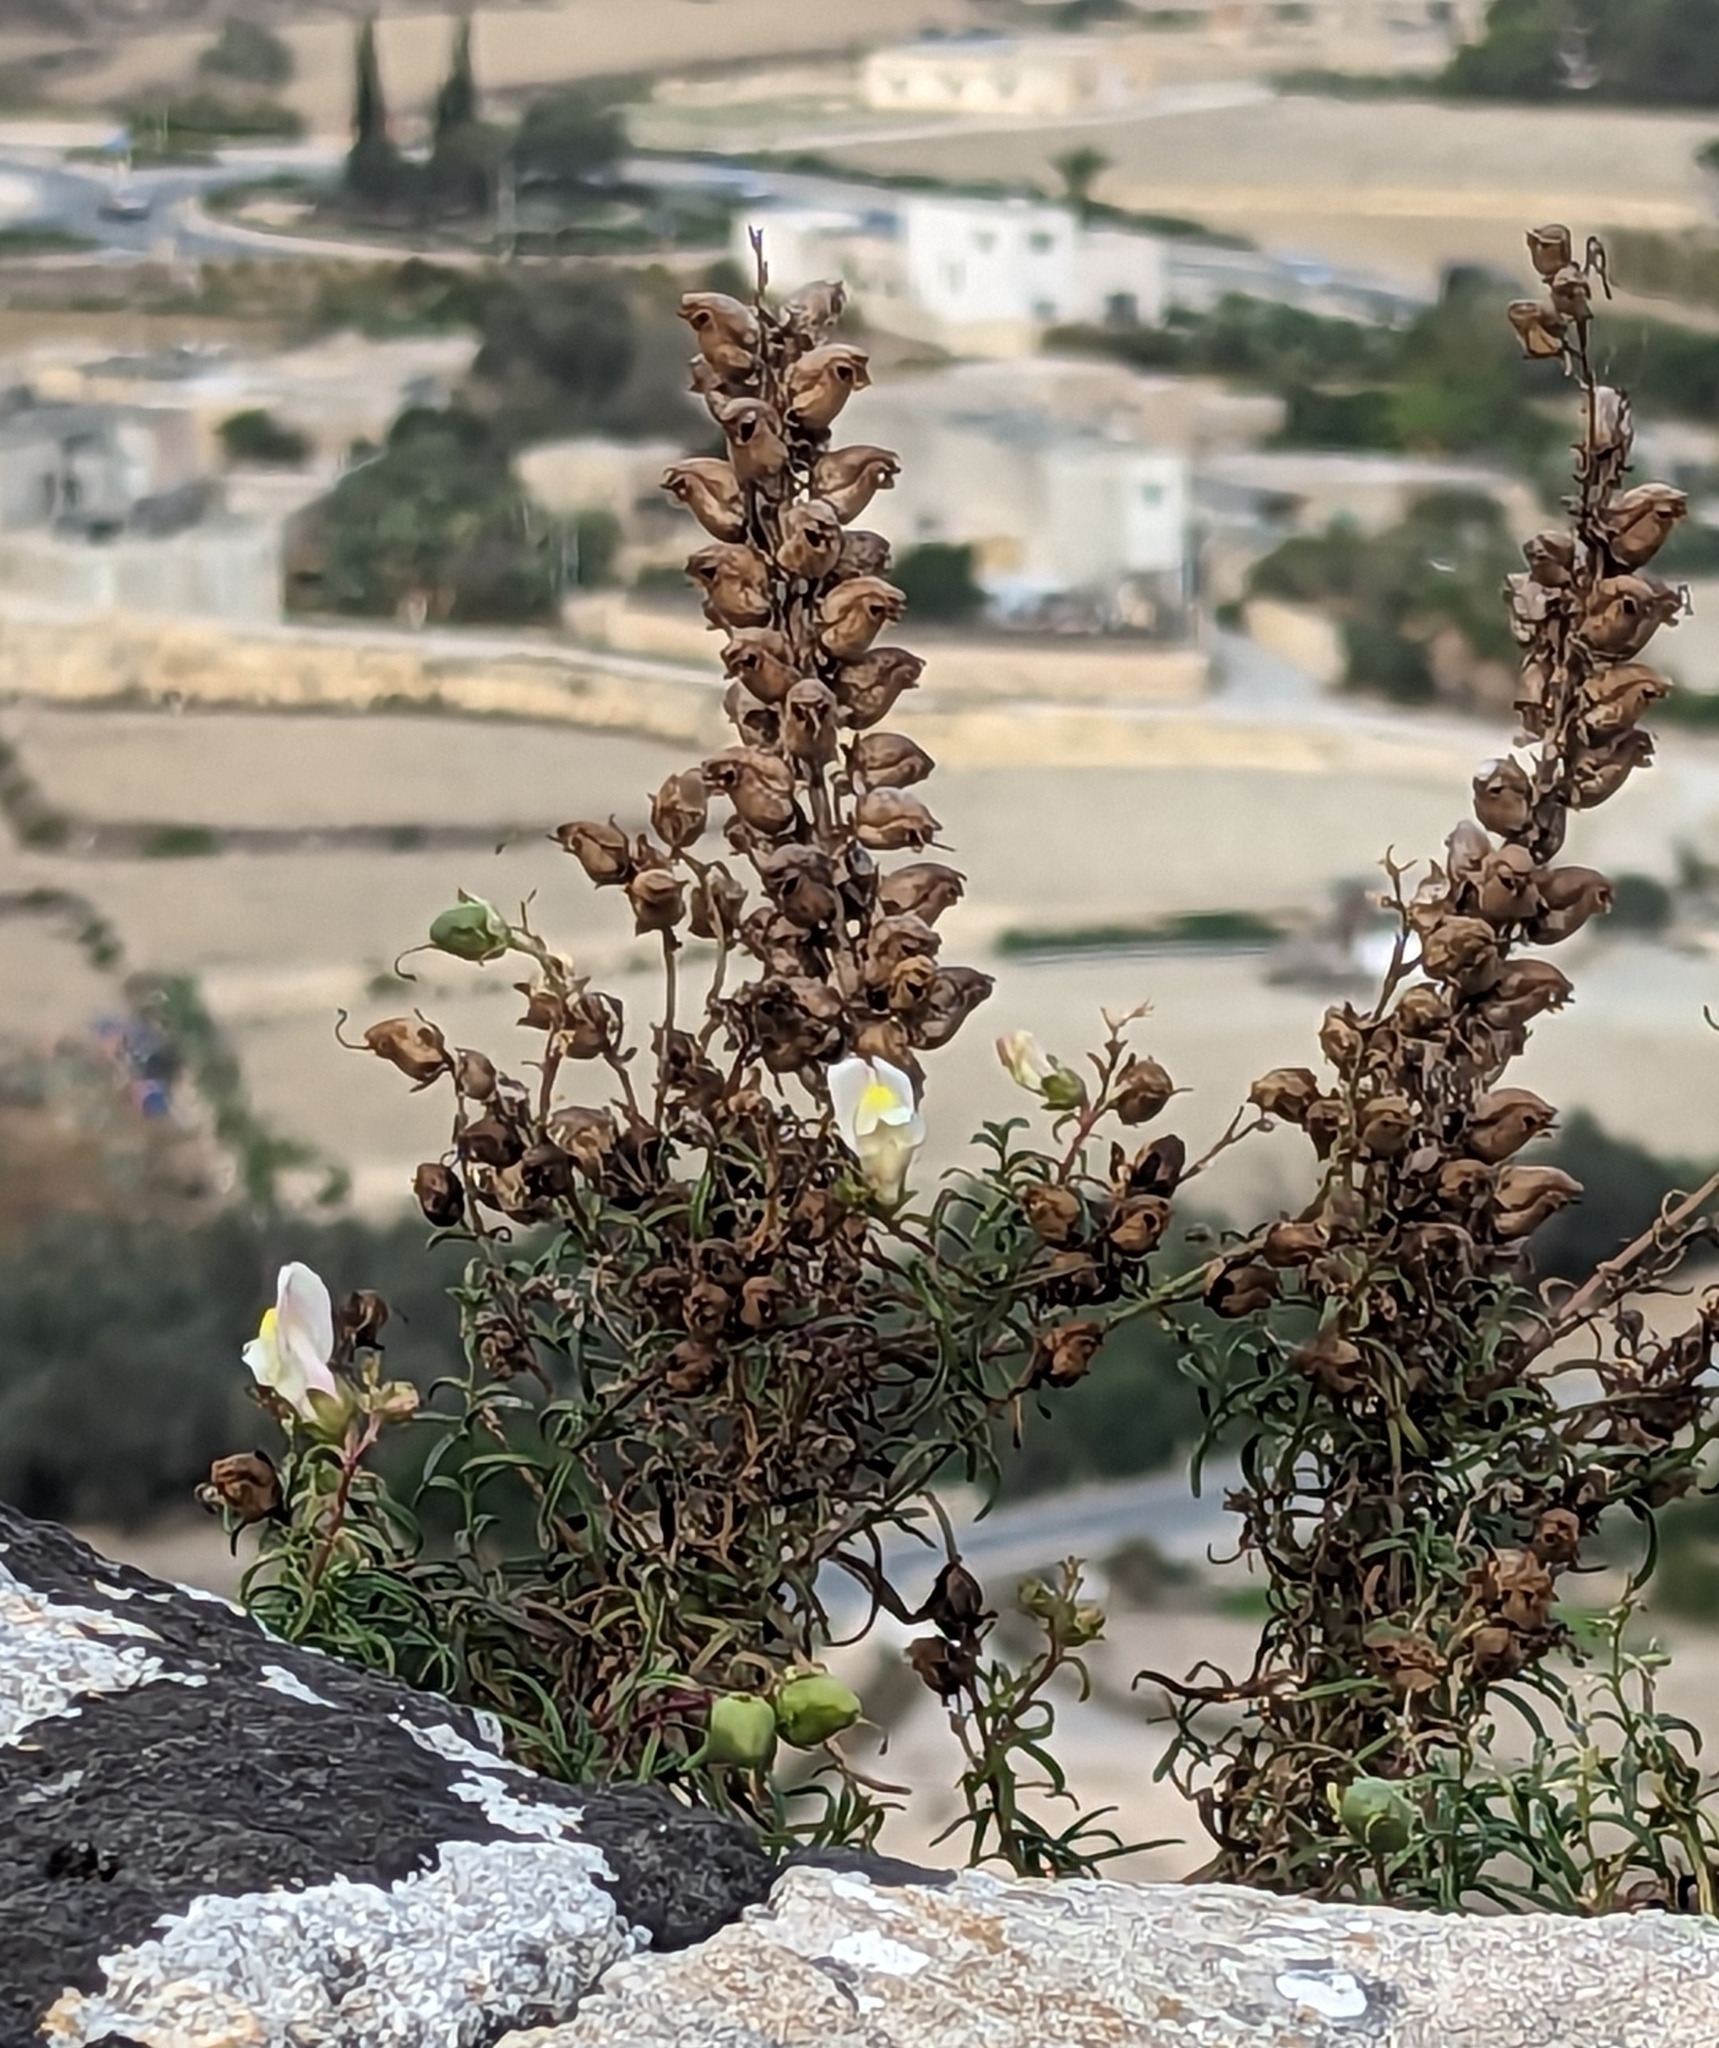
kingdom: Plantae
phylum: Tracheophyta
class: Magnoliopsida
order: Lamiales
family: Plantaginaceae
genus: Antirrhinum
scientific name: Antirrhinum siculum
